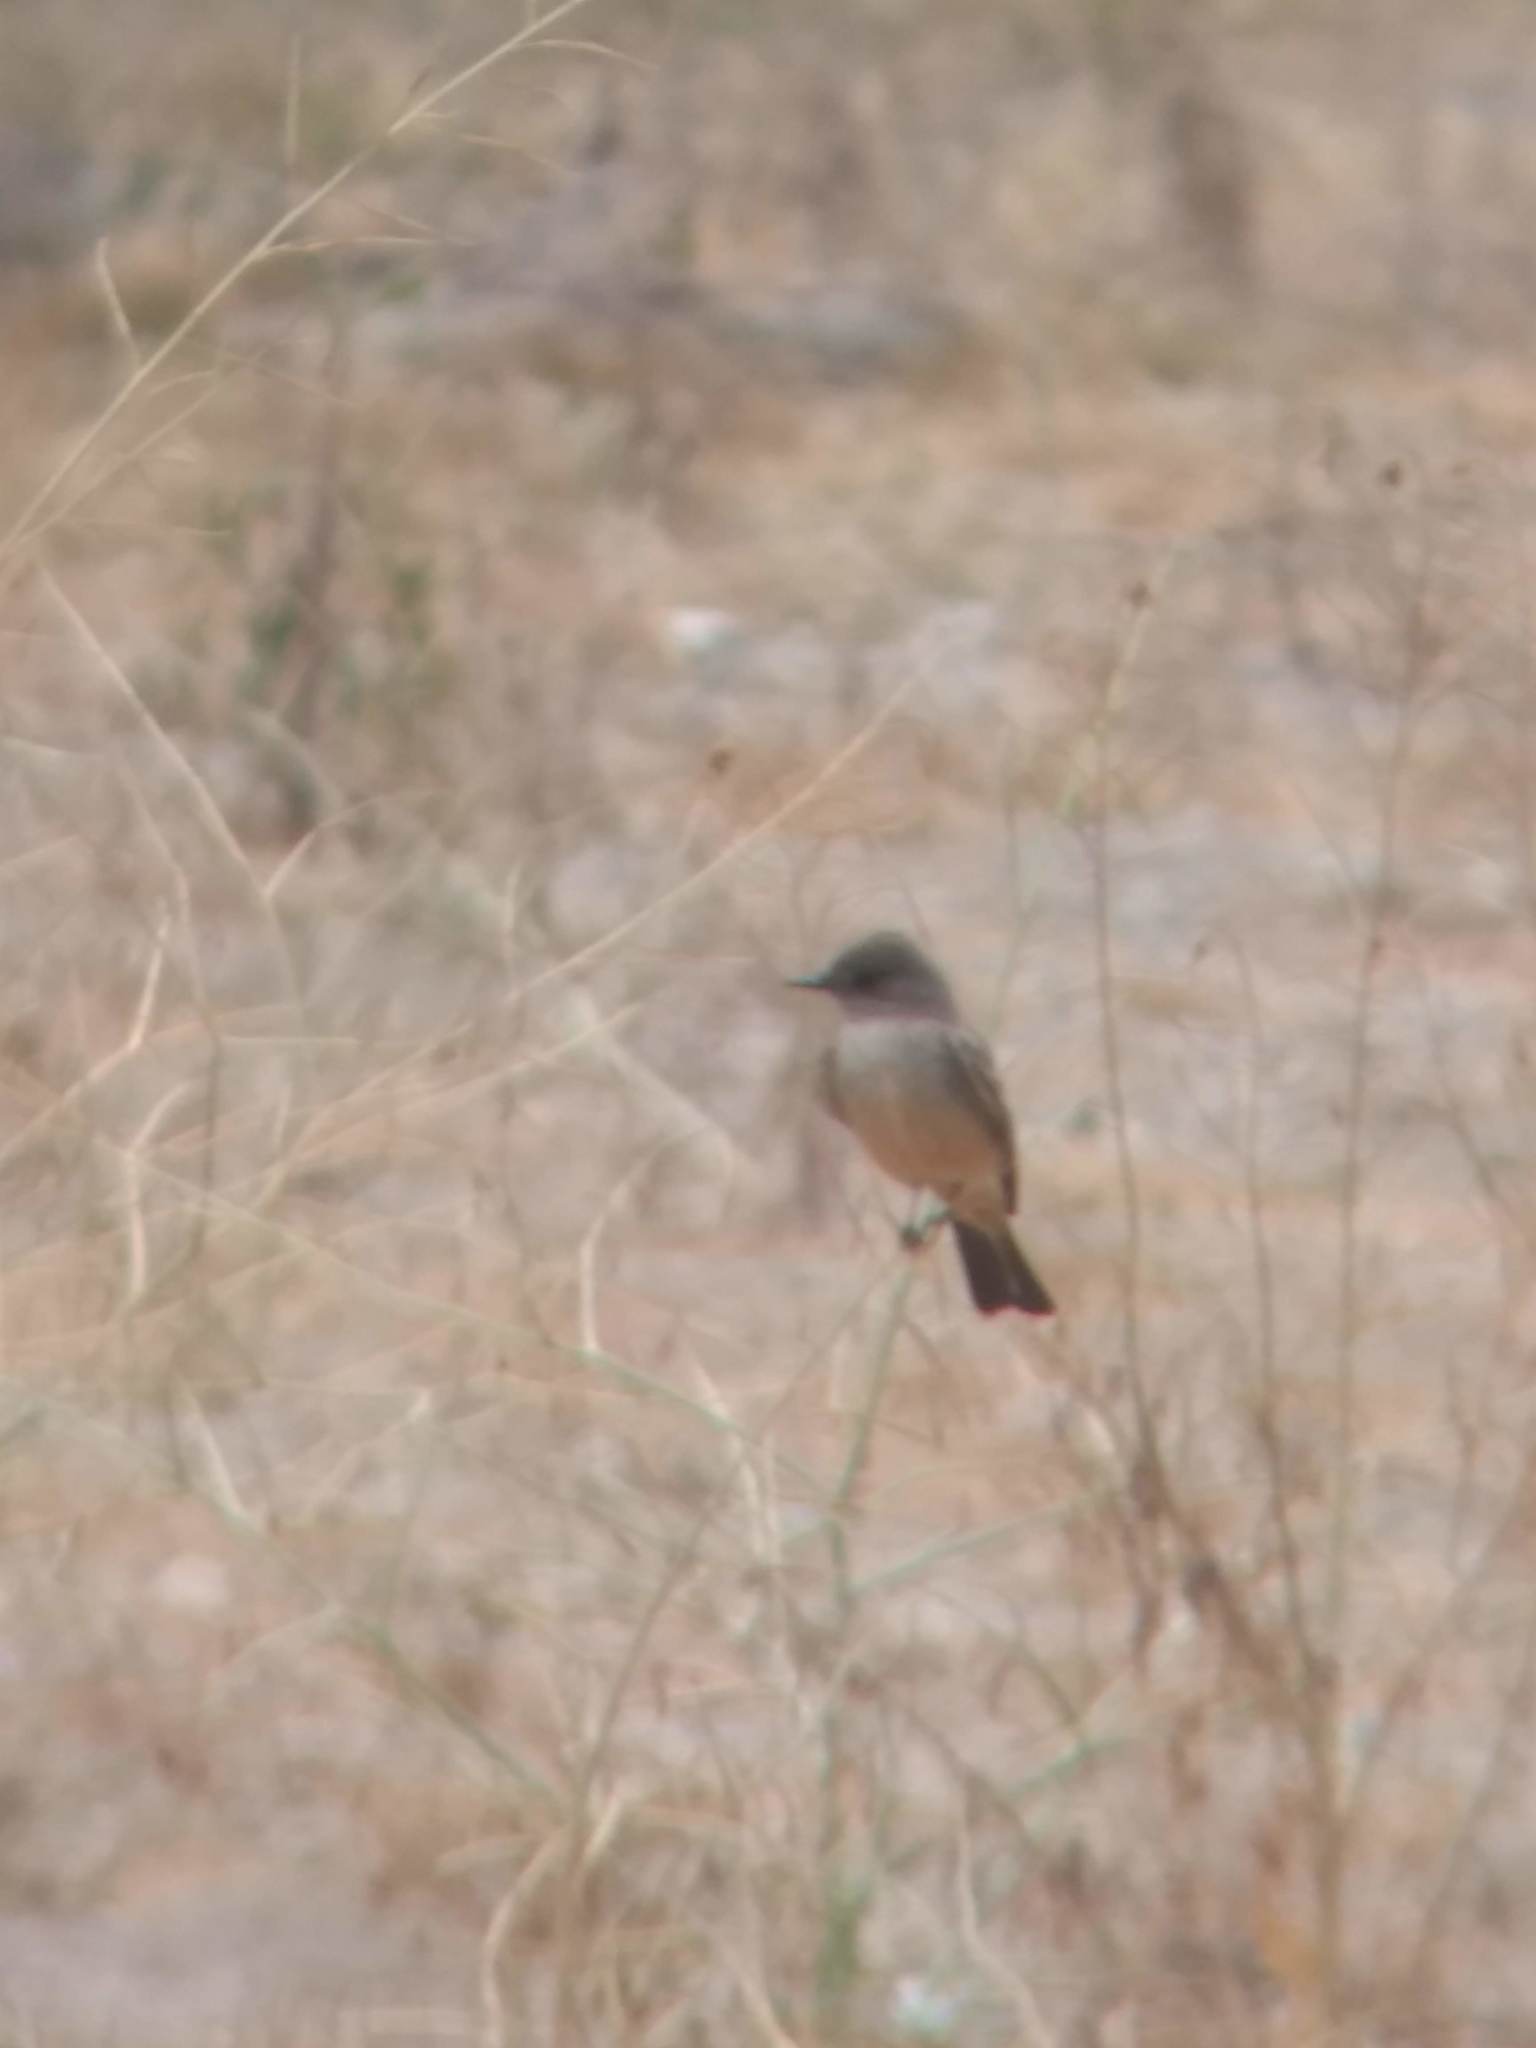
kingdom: Animalia
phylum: Chordata
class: Aves
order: Passeriformes
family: Tyrannidae
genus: Sayornis
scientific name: Sayornis saya
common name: Say's phoebe
